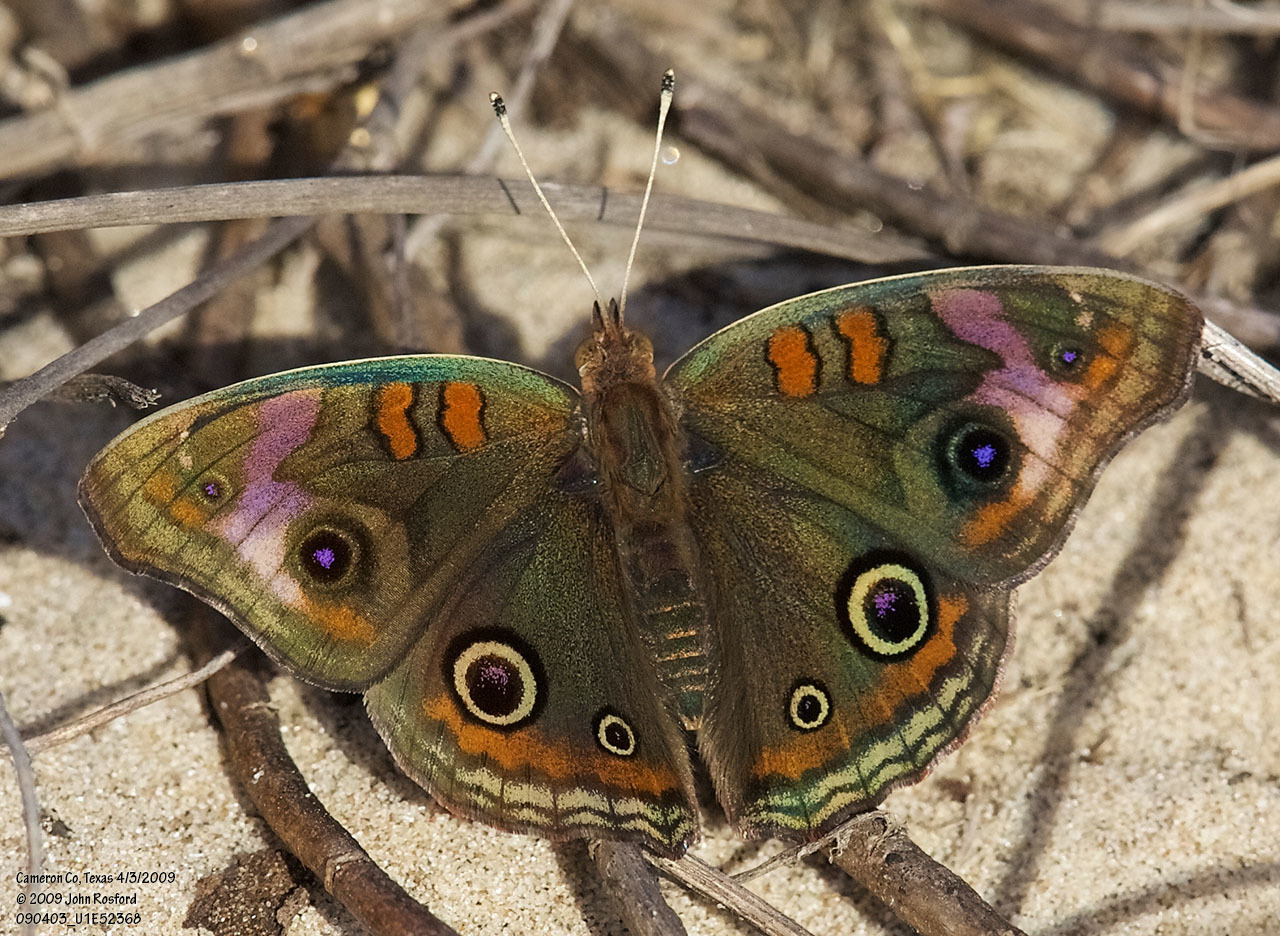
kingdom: Animalia
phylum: Arthropoda
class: Insecta
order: Lepidoptera
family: Nymphalidae
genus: Junonia
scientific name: Junonia stemosa
